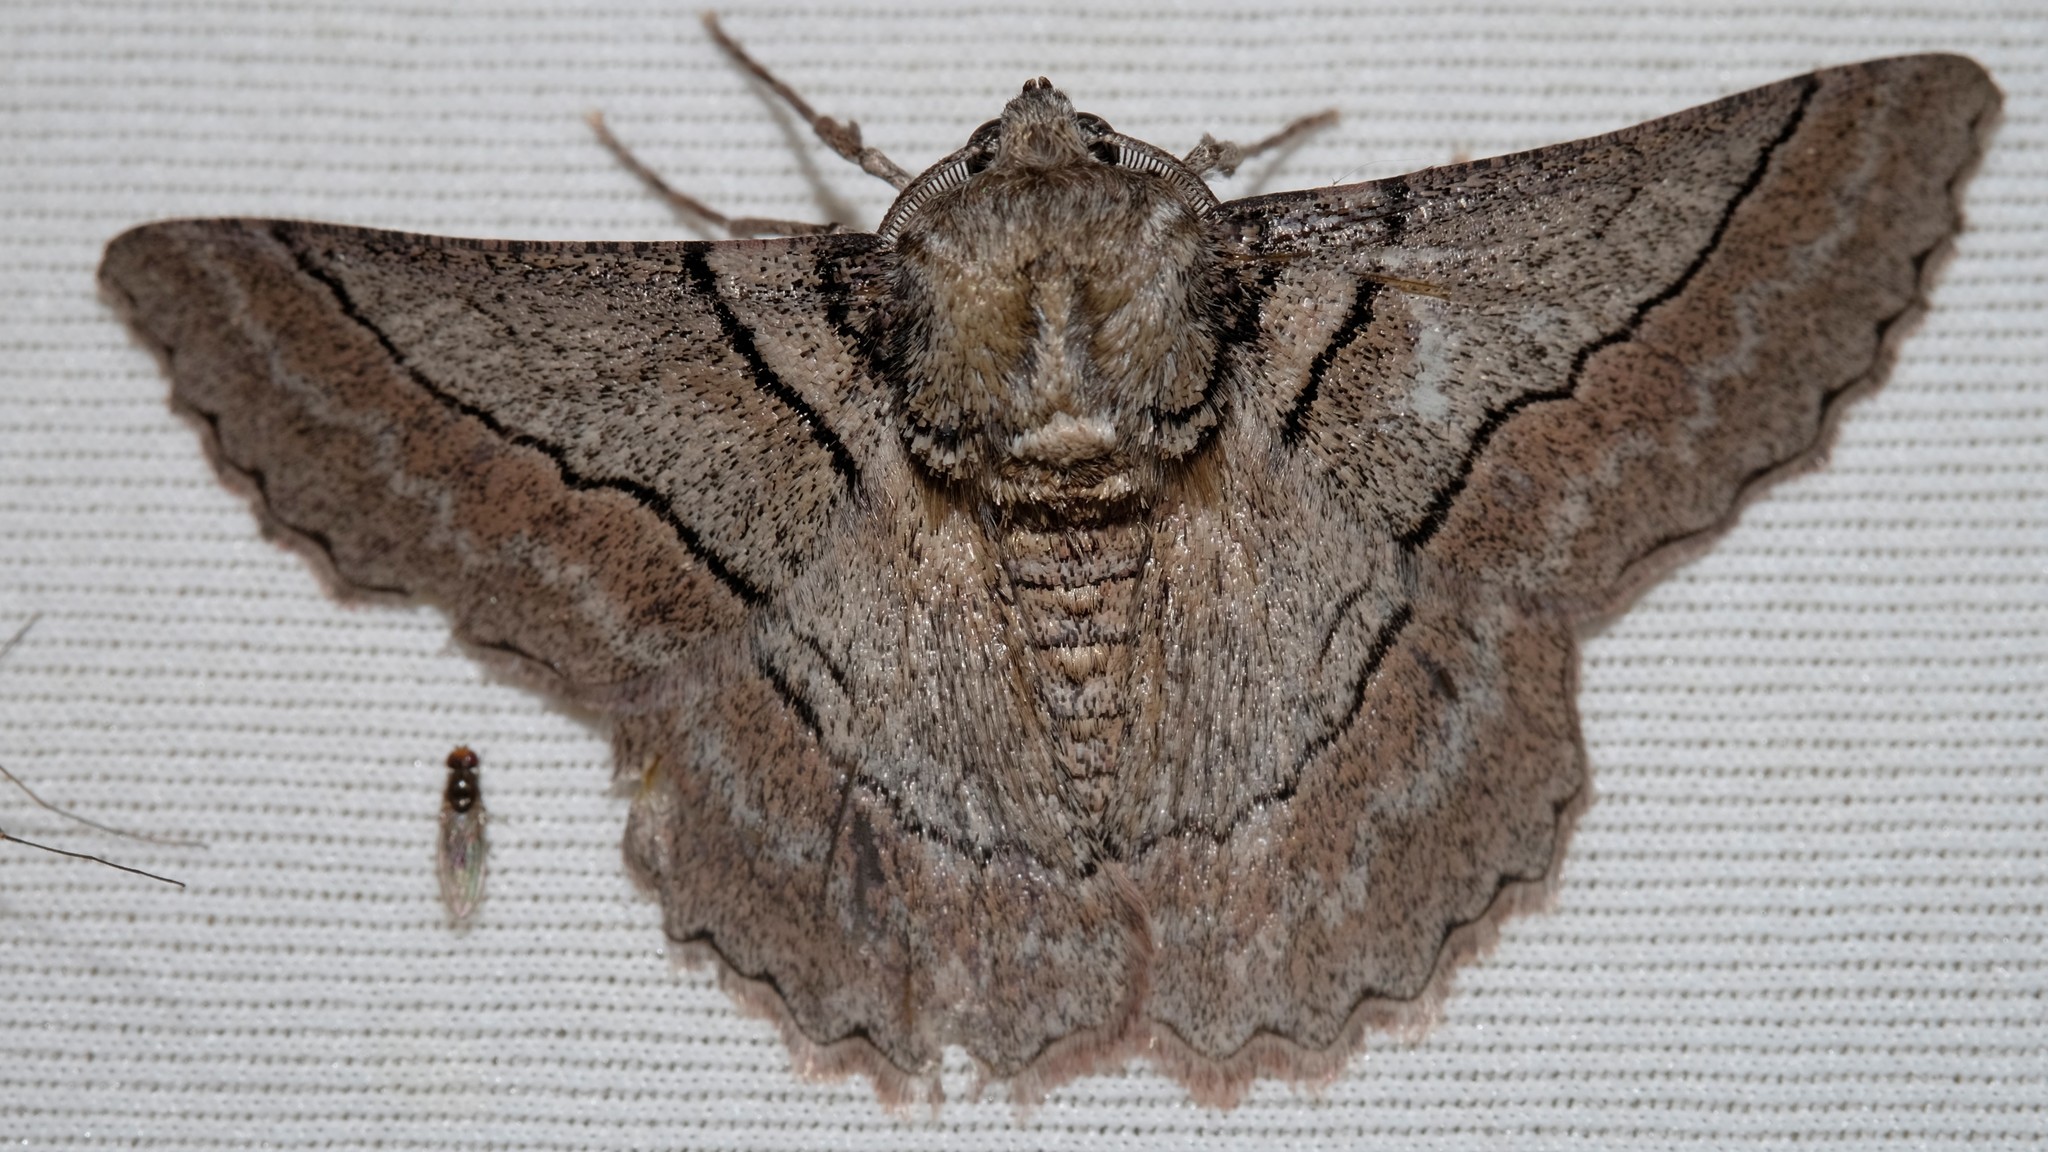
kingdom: Animalia
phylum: Arthropoda
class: Insecta
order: Lepidoptera
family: Geometridae
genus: Hypobapta
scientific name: Hypobapta tachyhalotaria
